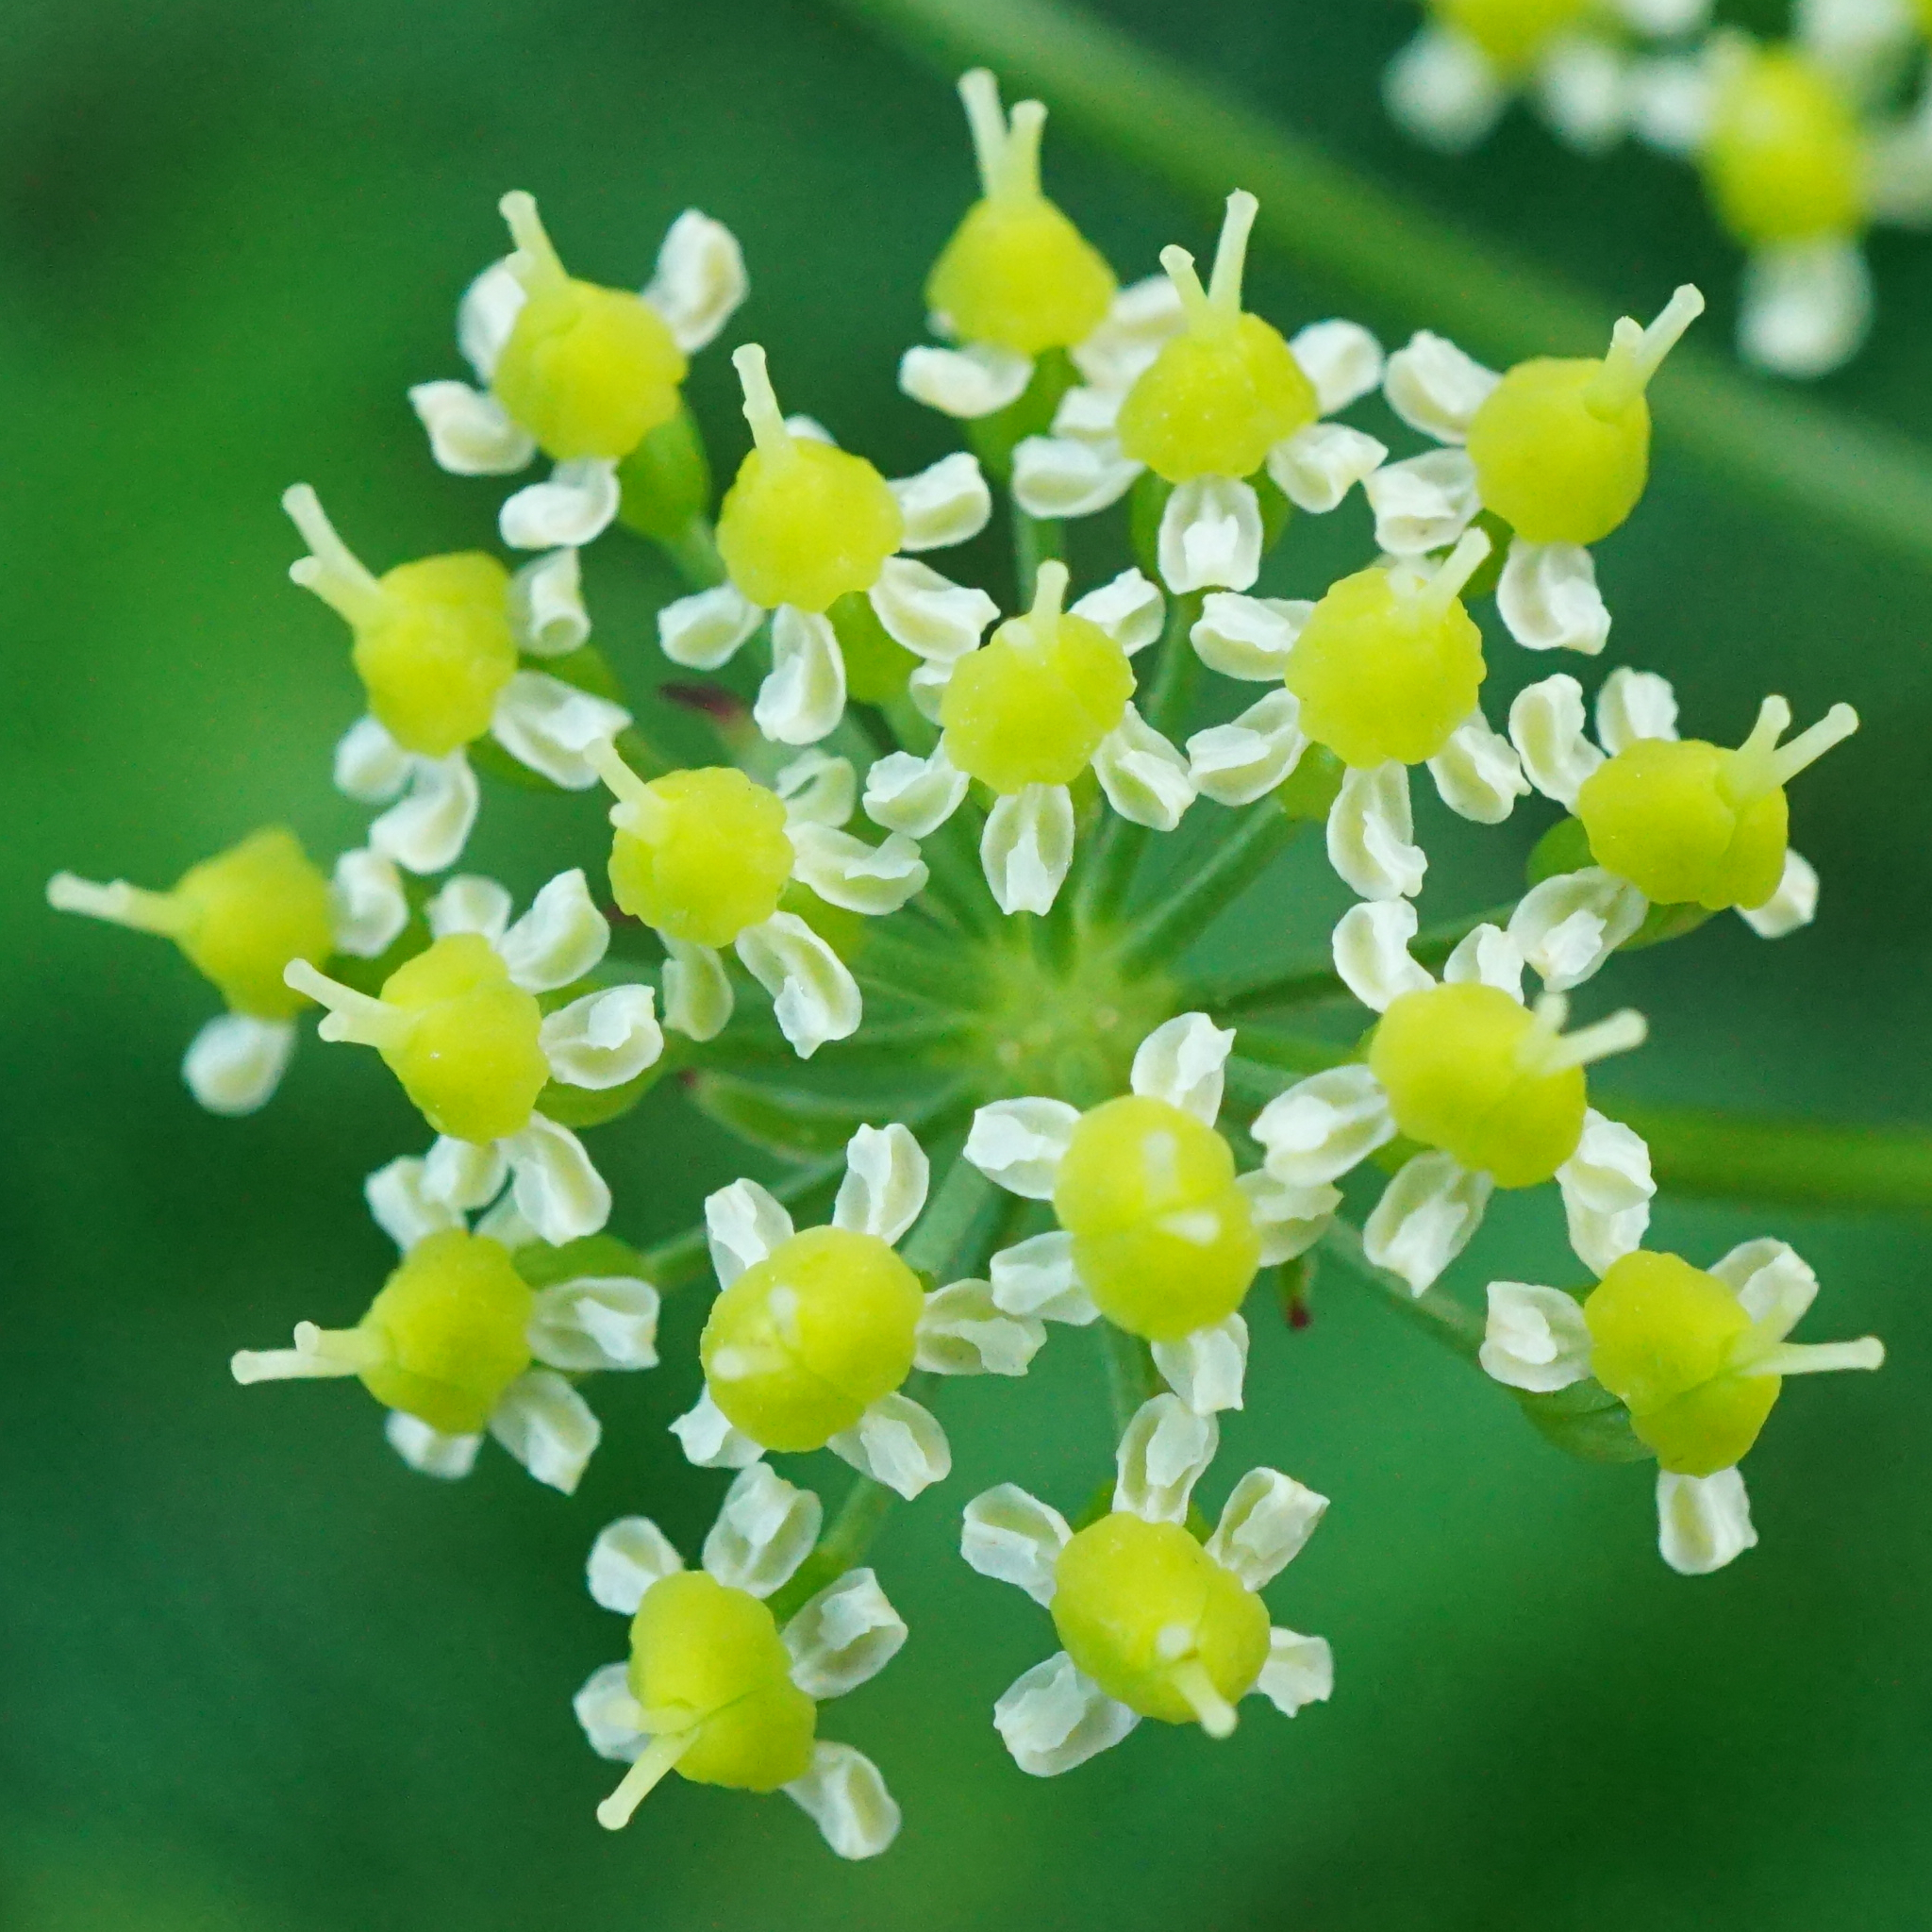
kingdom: Plantae
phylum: Tracheophyta
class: Magnoliopsida
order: Apiales
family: Apiaceae
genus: Silaum
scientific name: Silaum silaus
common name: Pepper-saxifrage
